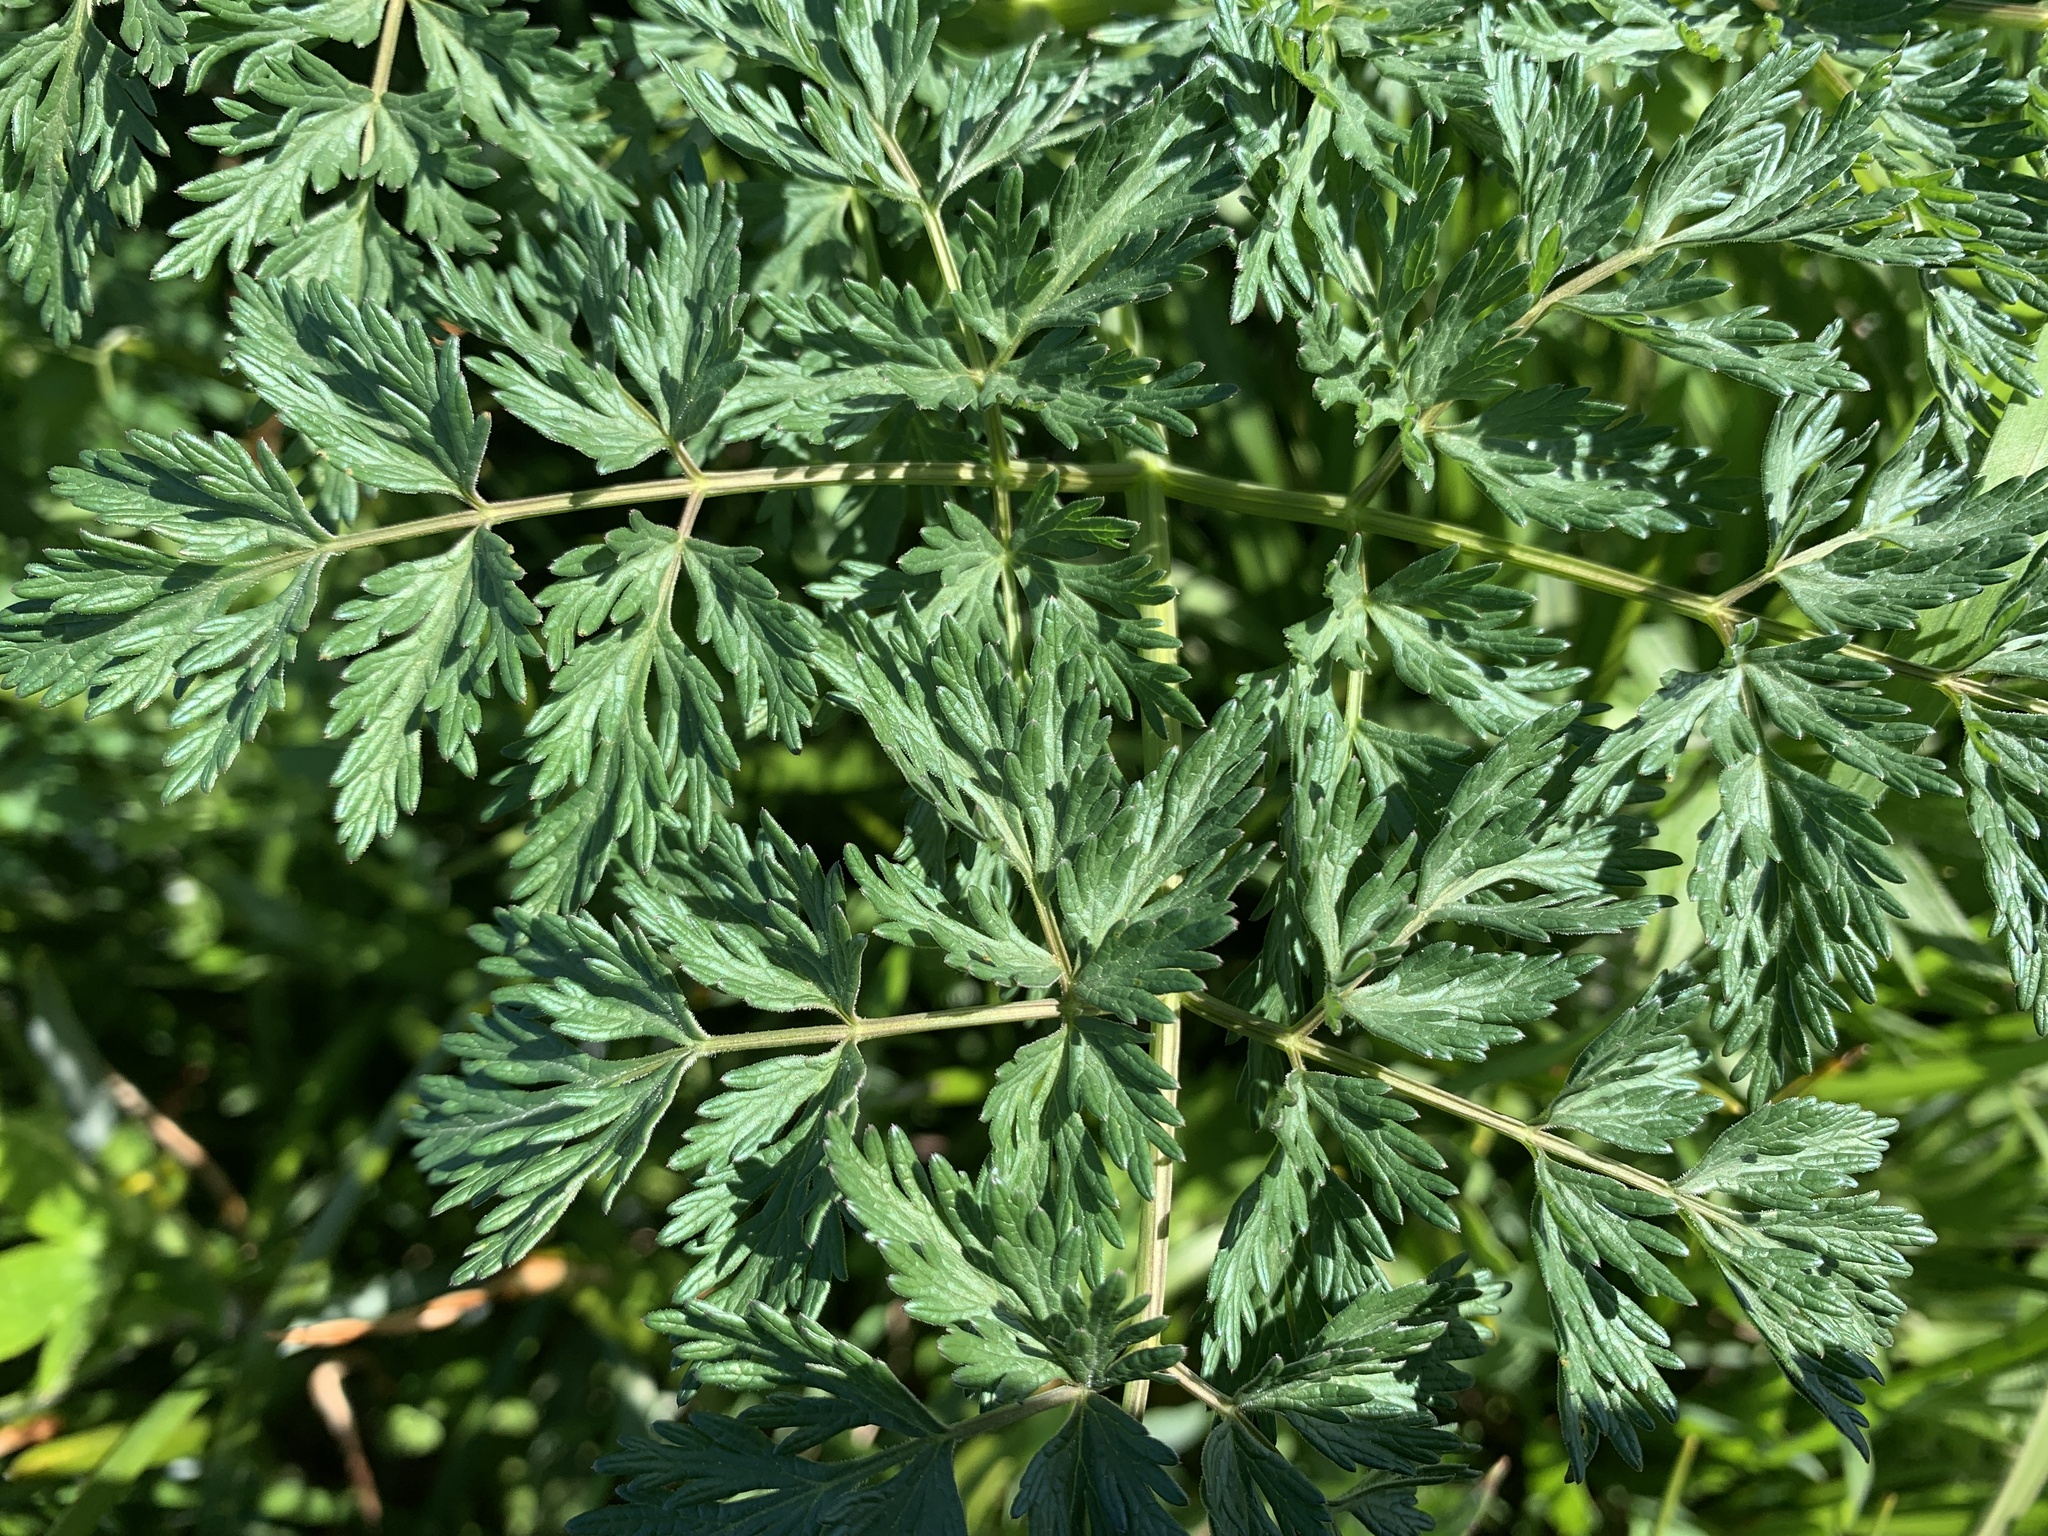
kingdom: Plantae
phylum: Tracheophyta
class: Magnoliopsida
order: Apiales
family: Apiaceae
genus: Lomatium
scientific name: Lomatium dissectum
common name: Lomatium
